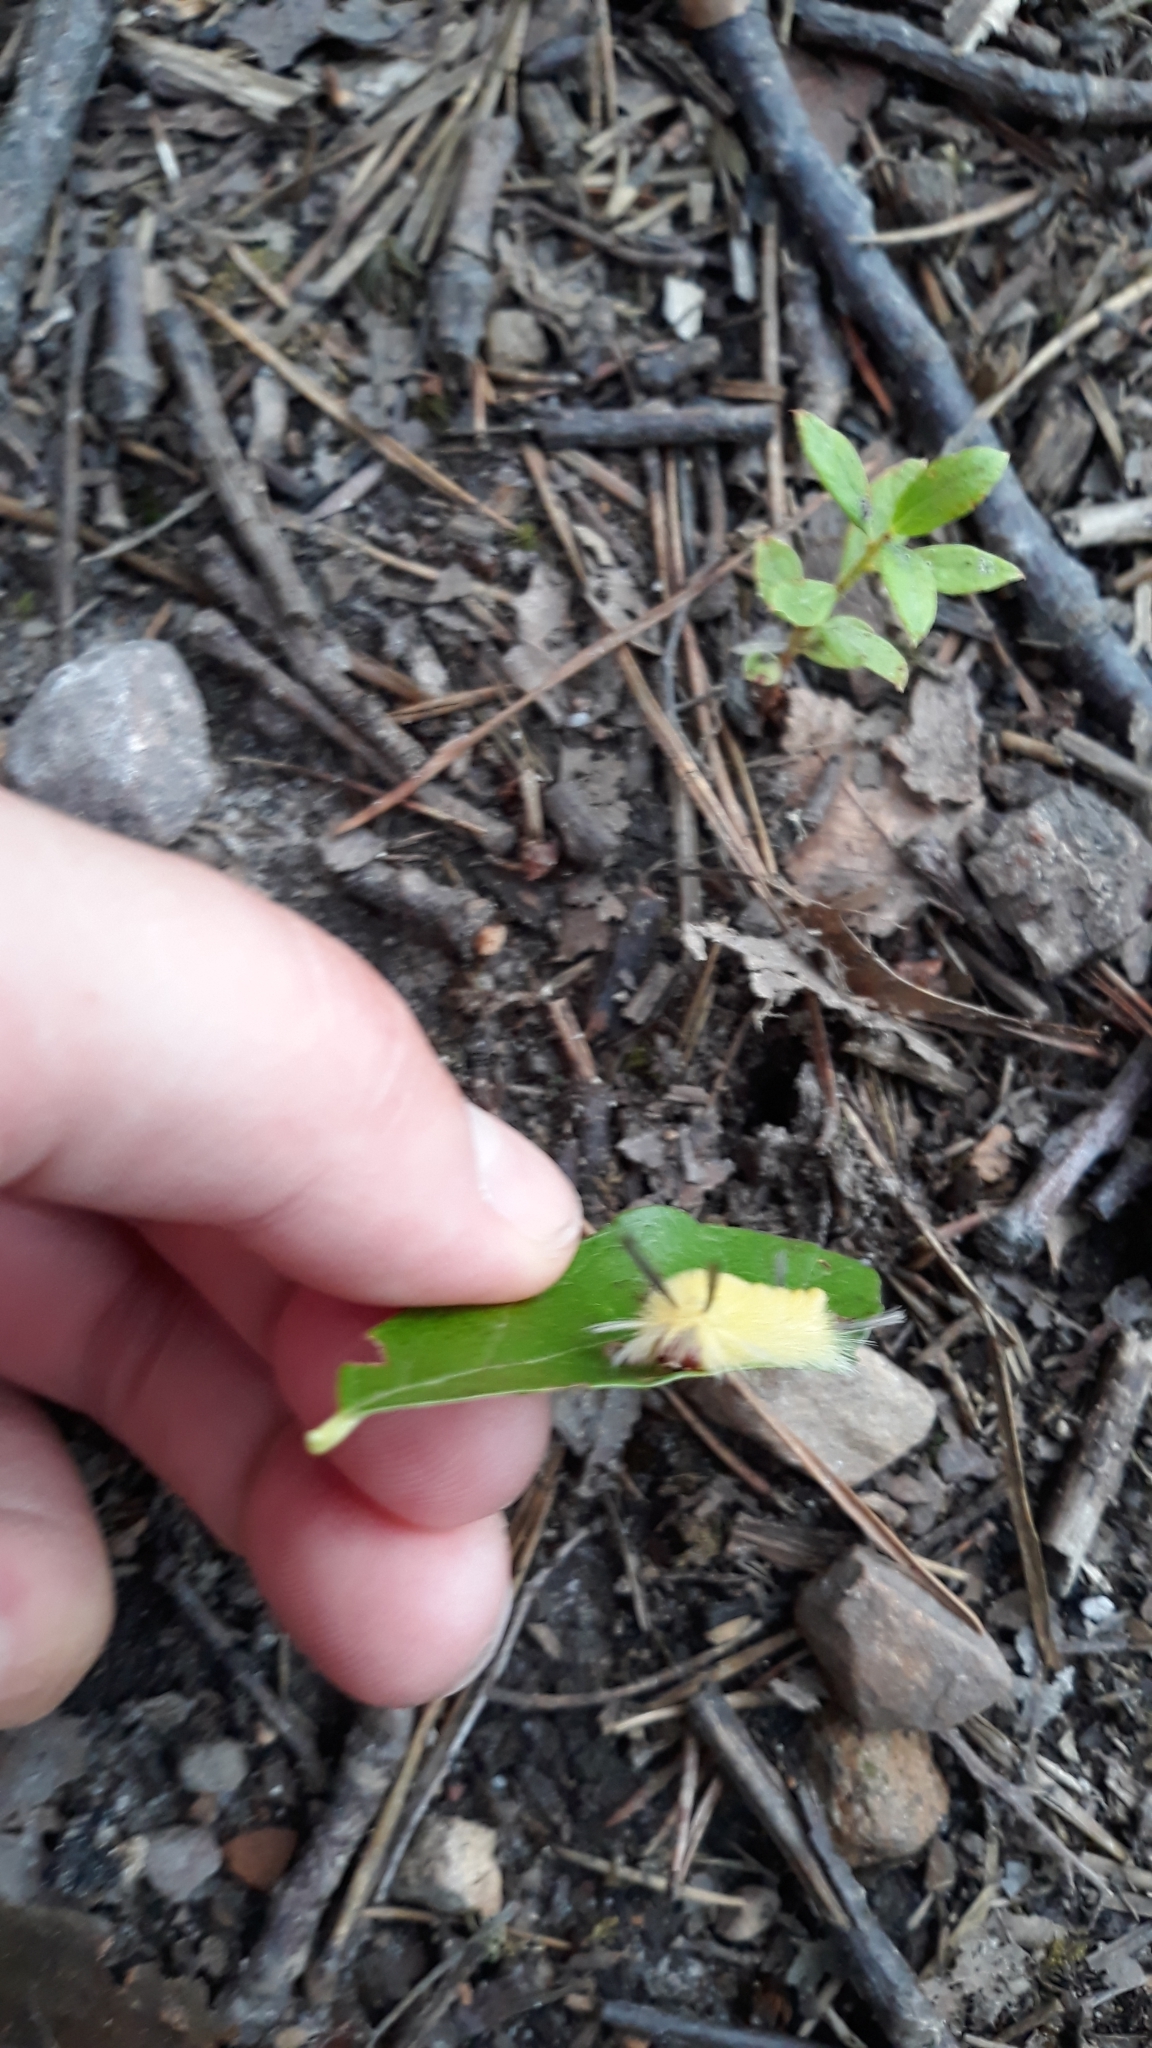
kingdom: Animalia
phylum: Arthropoda
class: Insecta
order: Lepidoptera
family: Erebidae
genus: Halysidota
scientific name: Halysidota tessellaris
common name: Banded tussock moth
